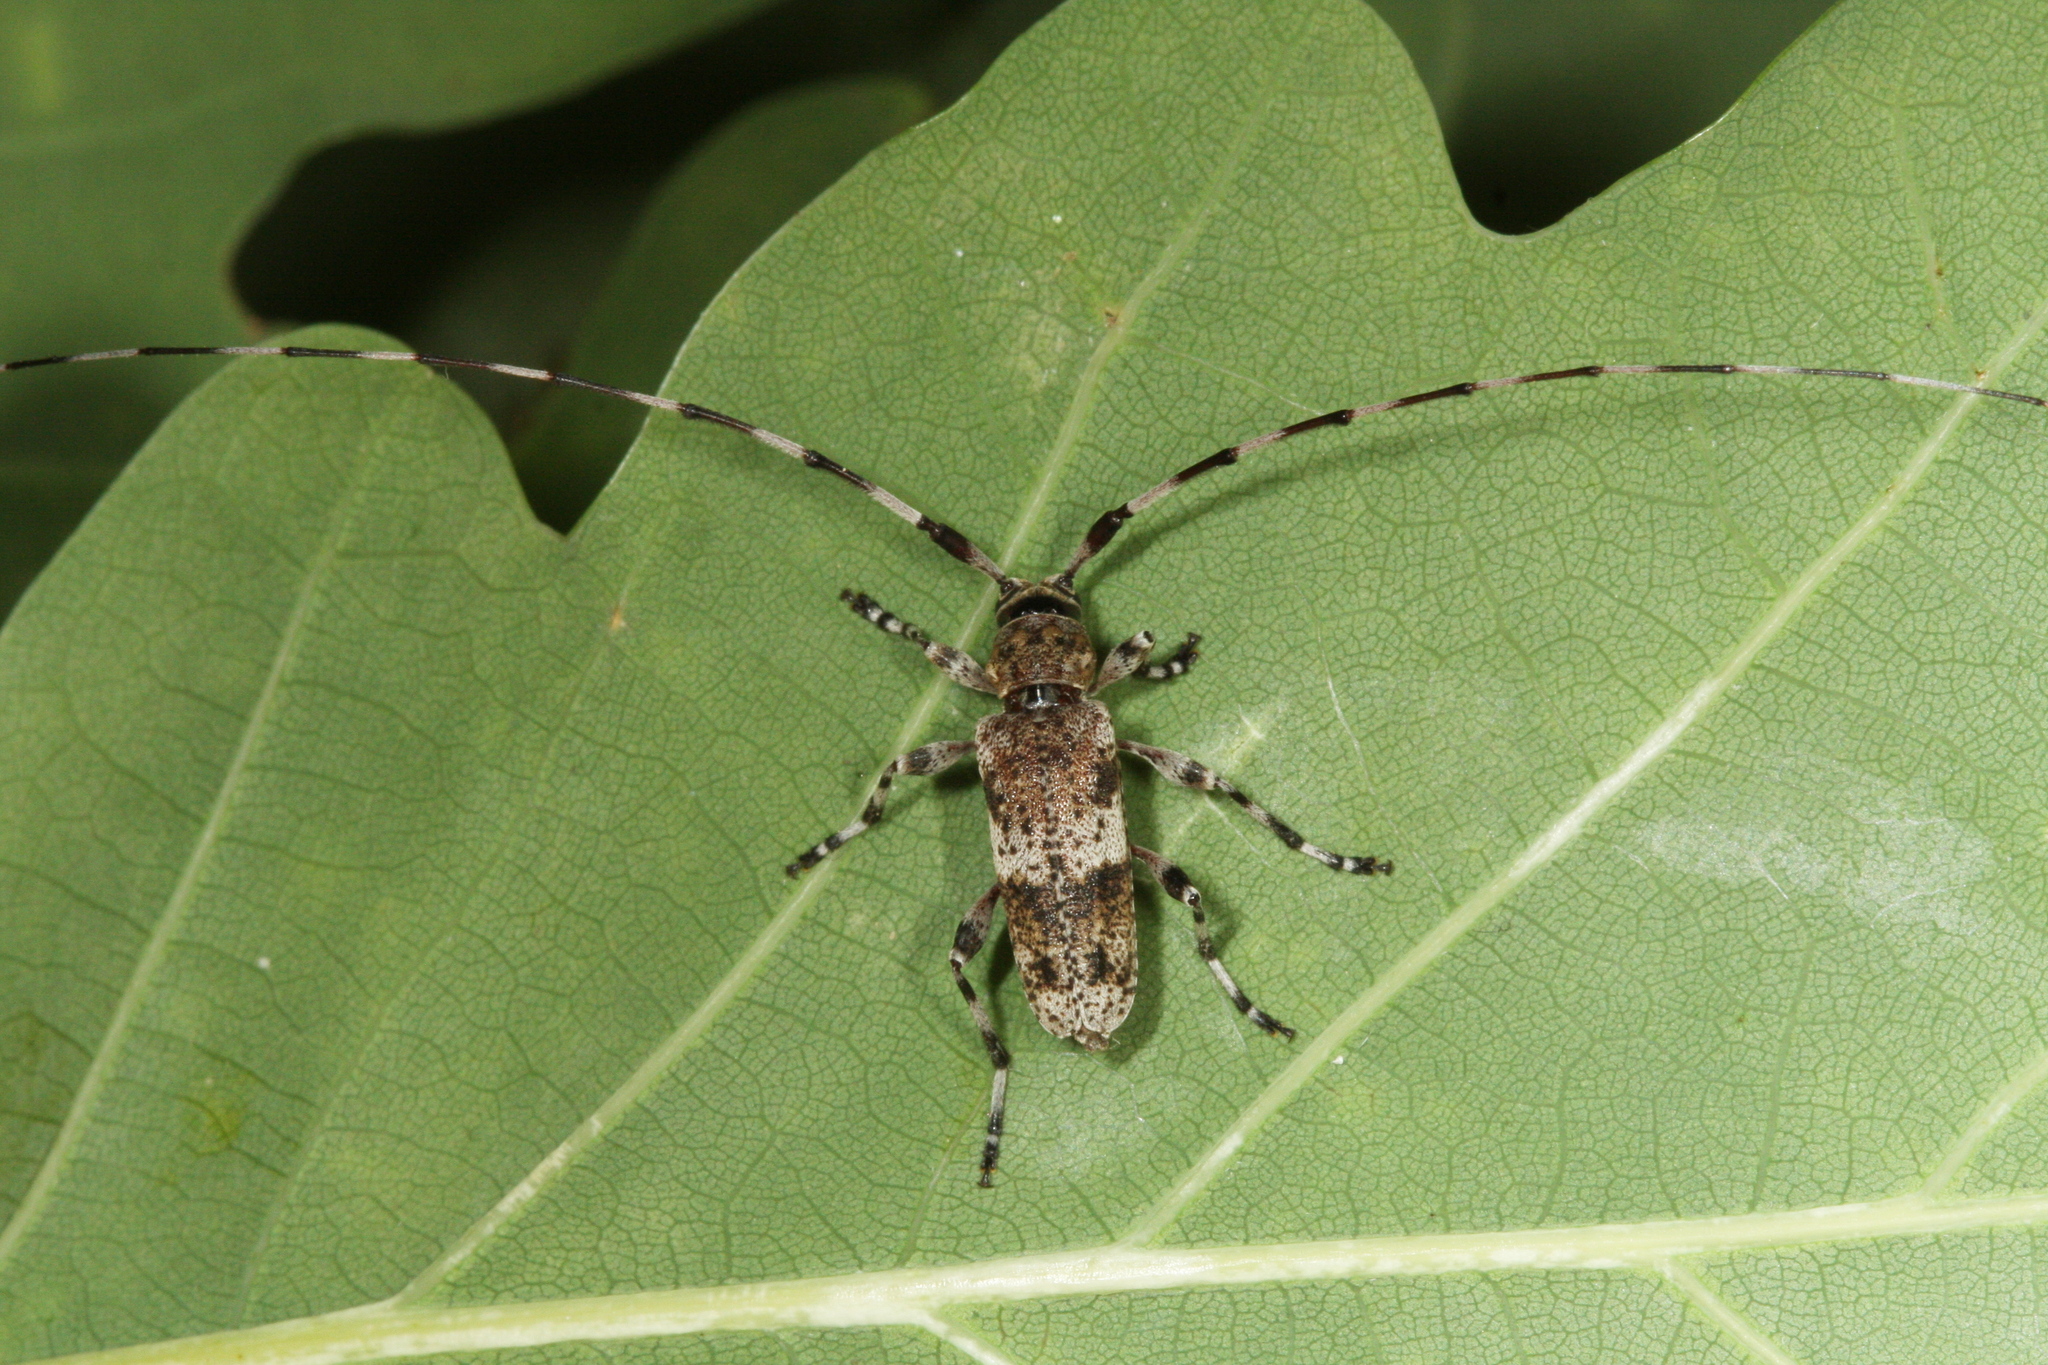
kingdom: Animalia
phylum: Arthropoda
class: Insecta
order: Coleoptera
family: Cerambycidae
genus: Acanthocinus
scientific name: Acanthocinus griseus
